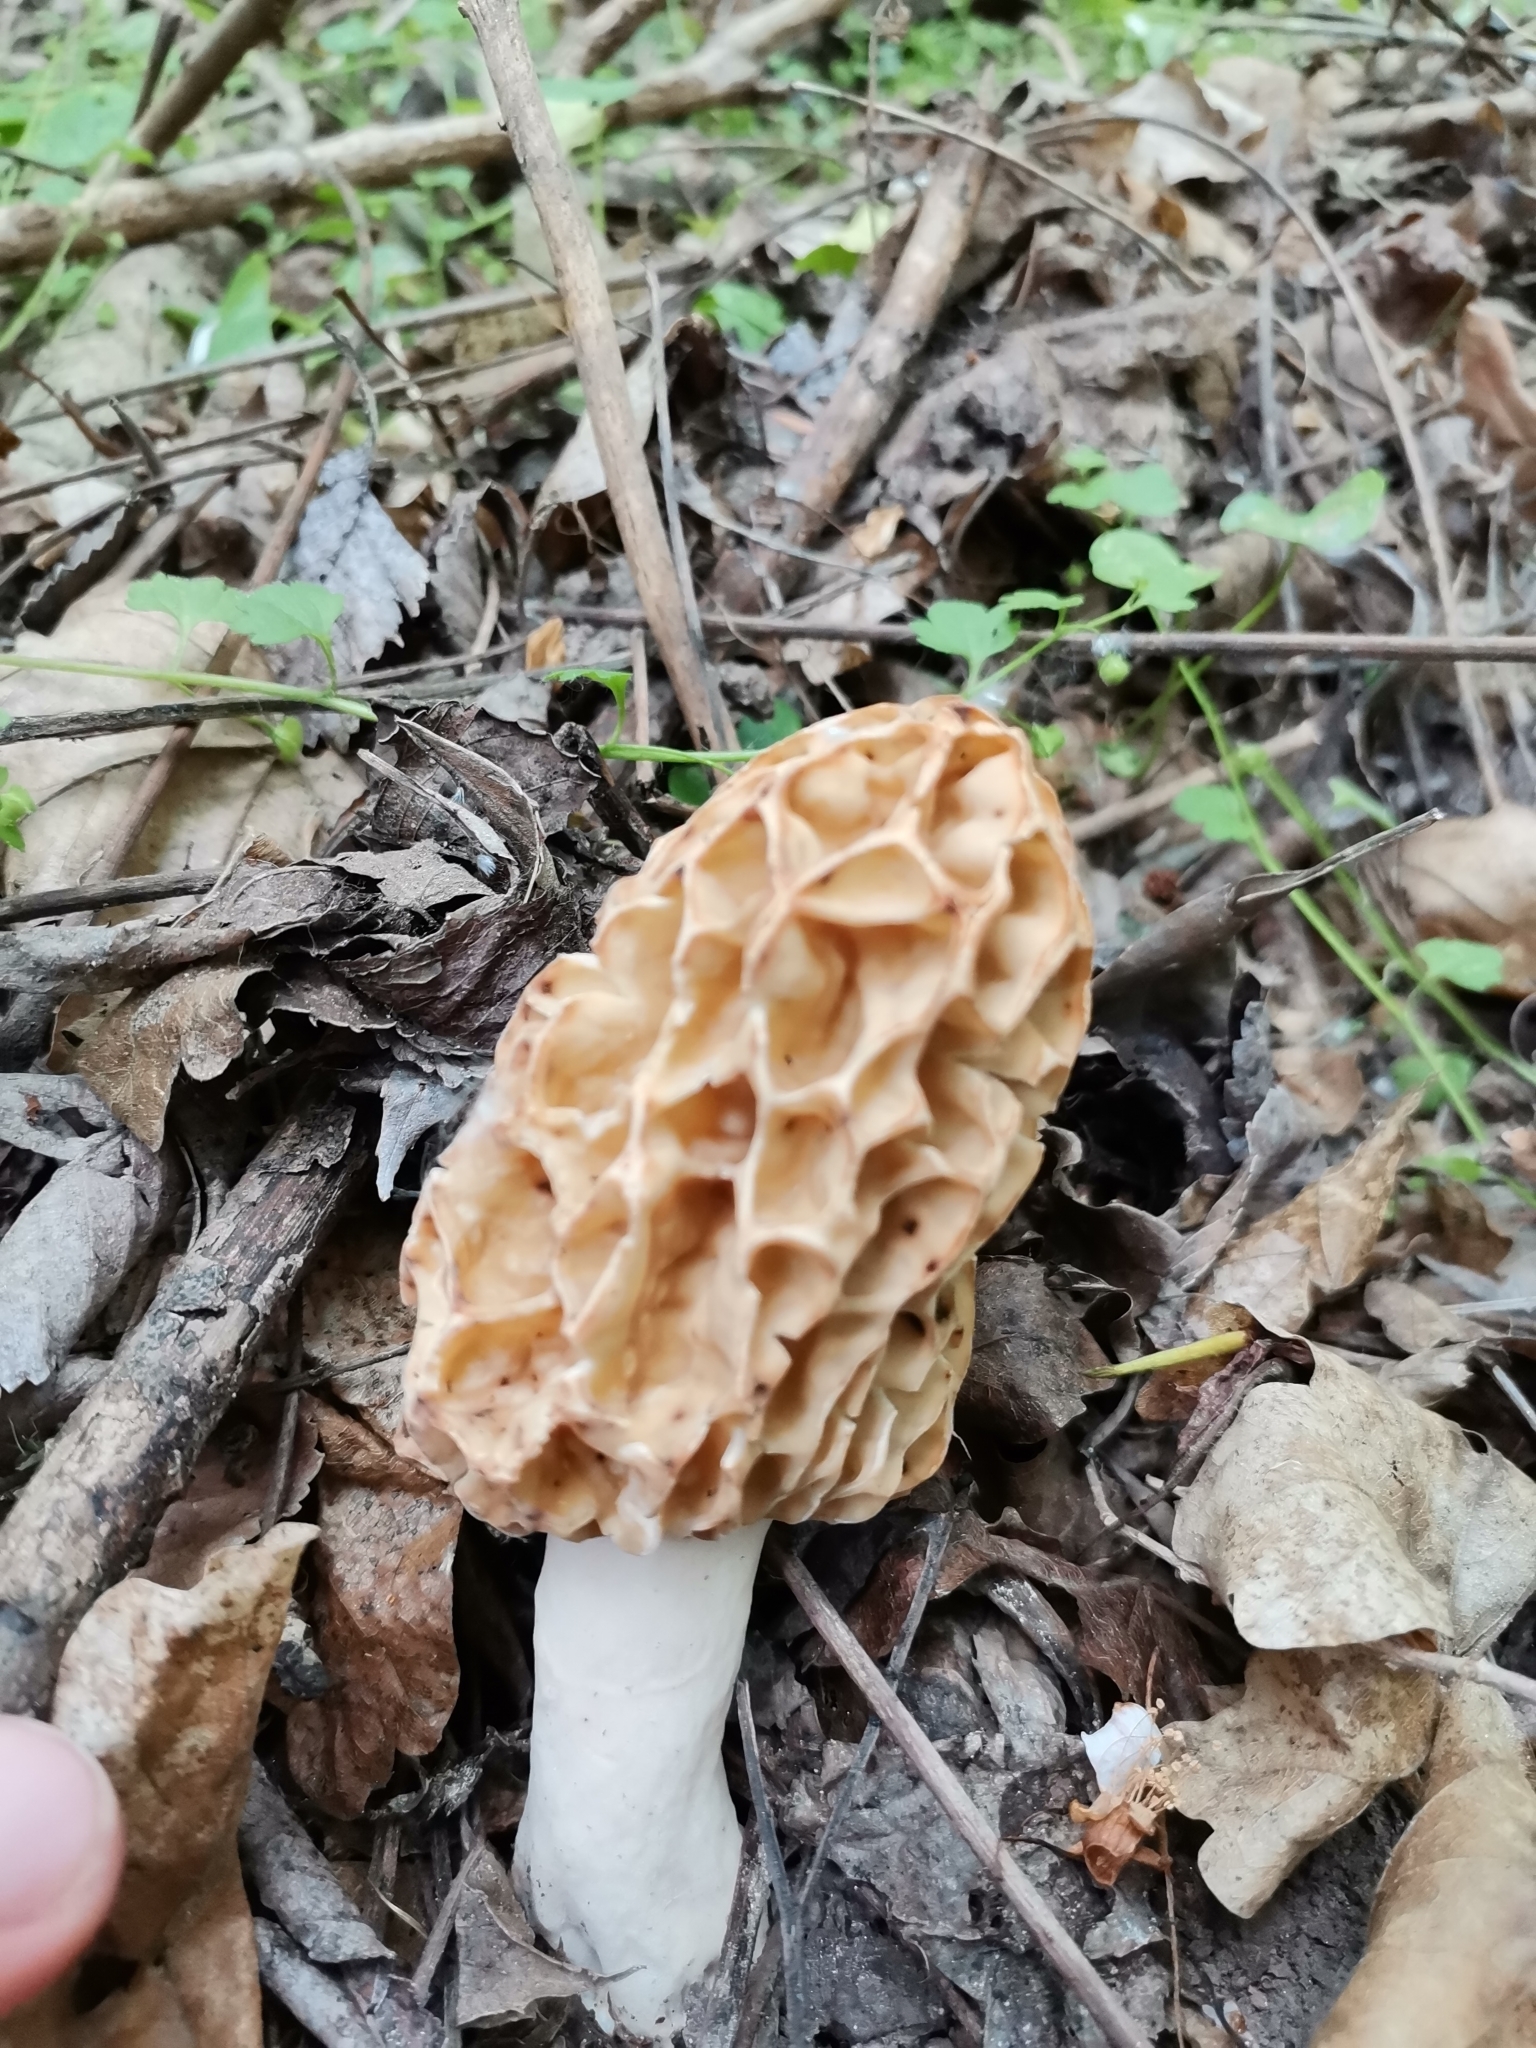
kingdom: Fungi
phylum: Ascomycota
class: Pezizomycetes
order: Pezizales
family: Morchellaceae
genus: Morchella
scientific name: Morchella fluvialis
